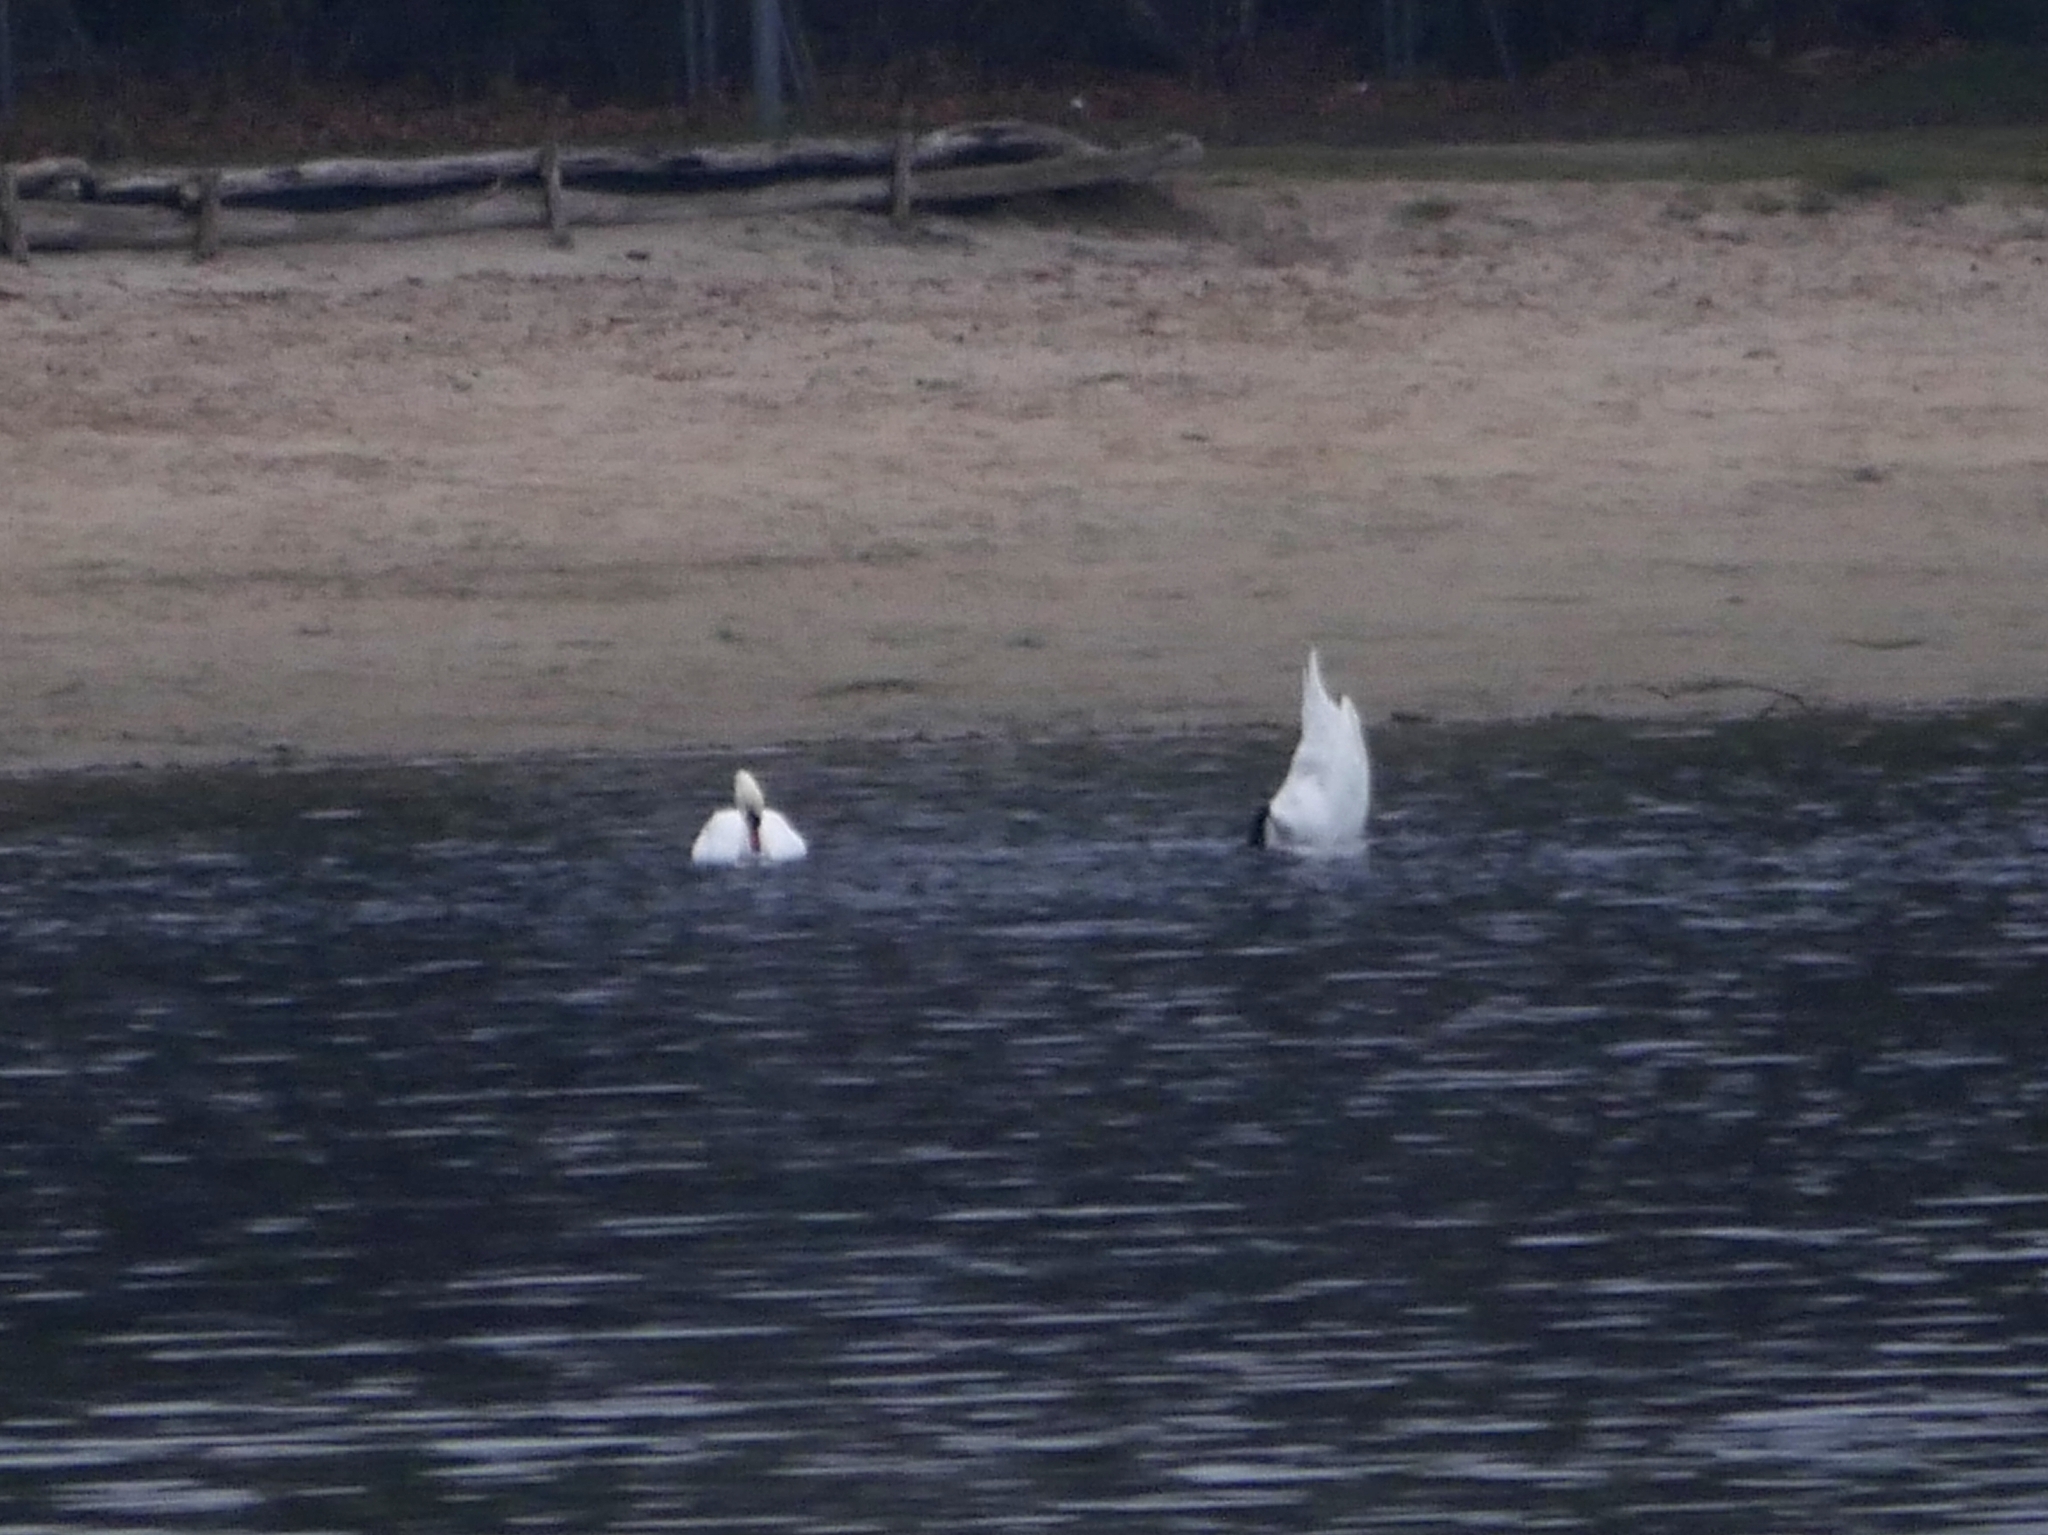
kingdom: Animalia
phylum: Chordata
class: Aves
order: Anseriformes
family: Anatidae
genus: Cygnus
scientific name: Cygnus olor
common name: Mute swan
